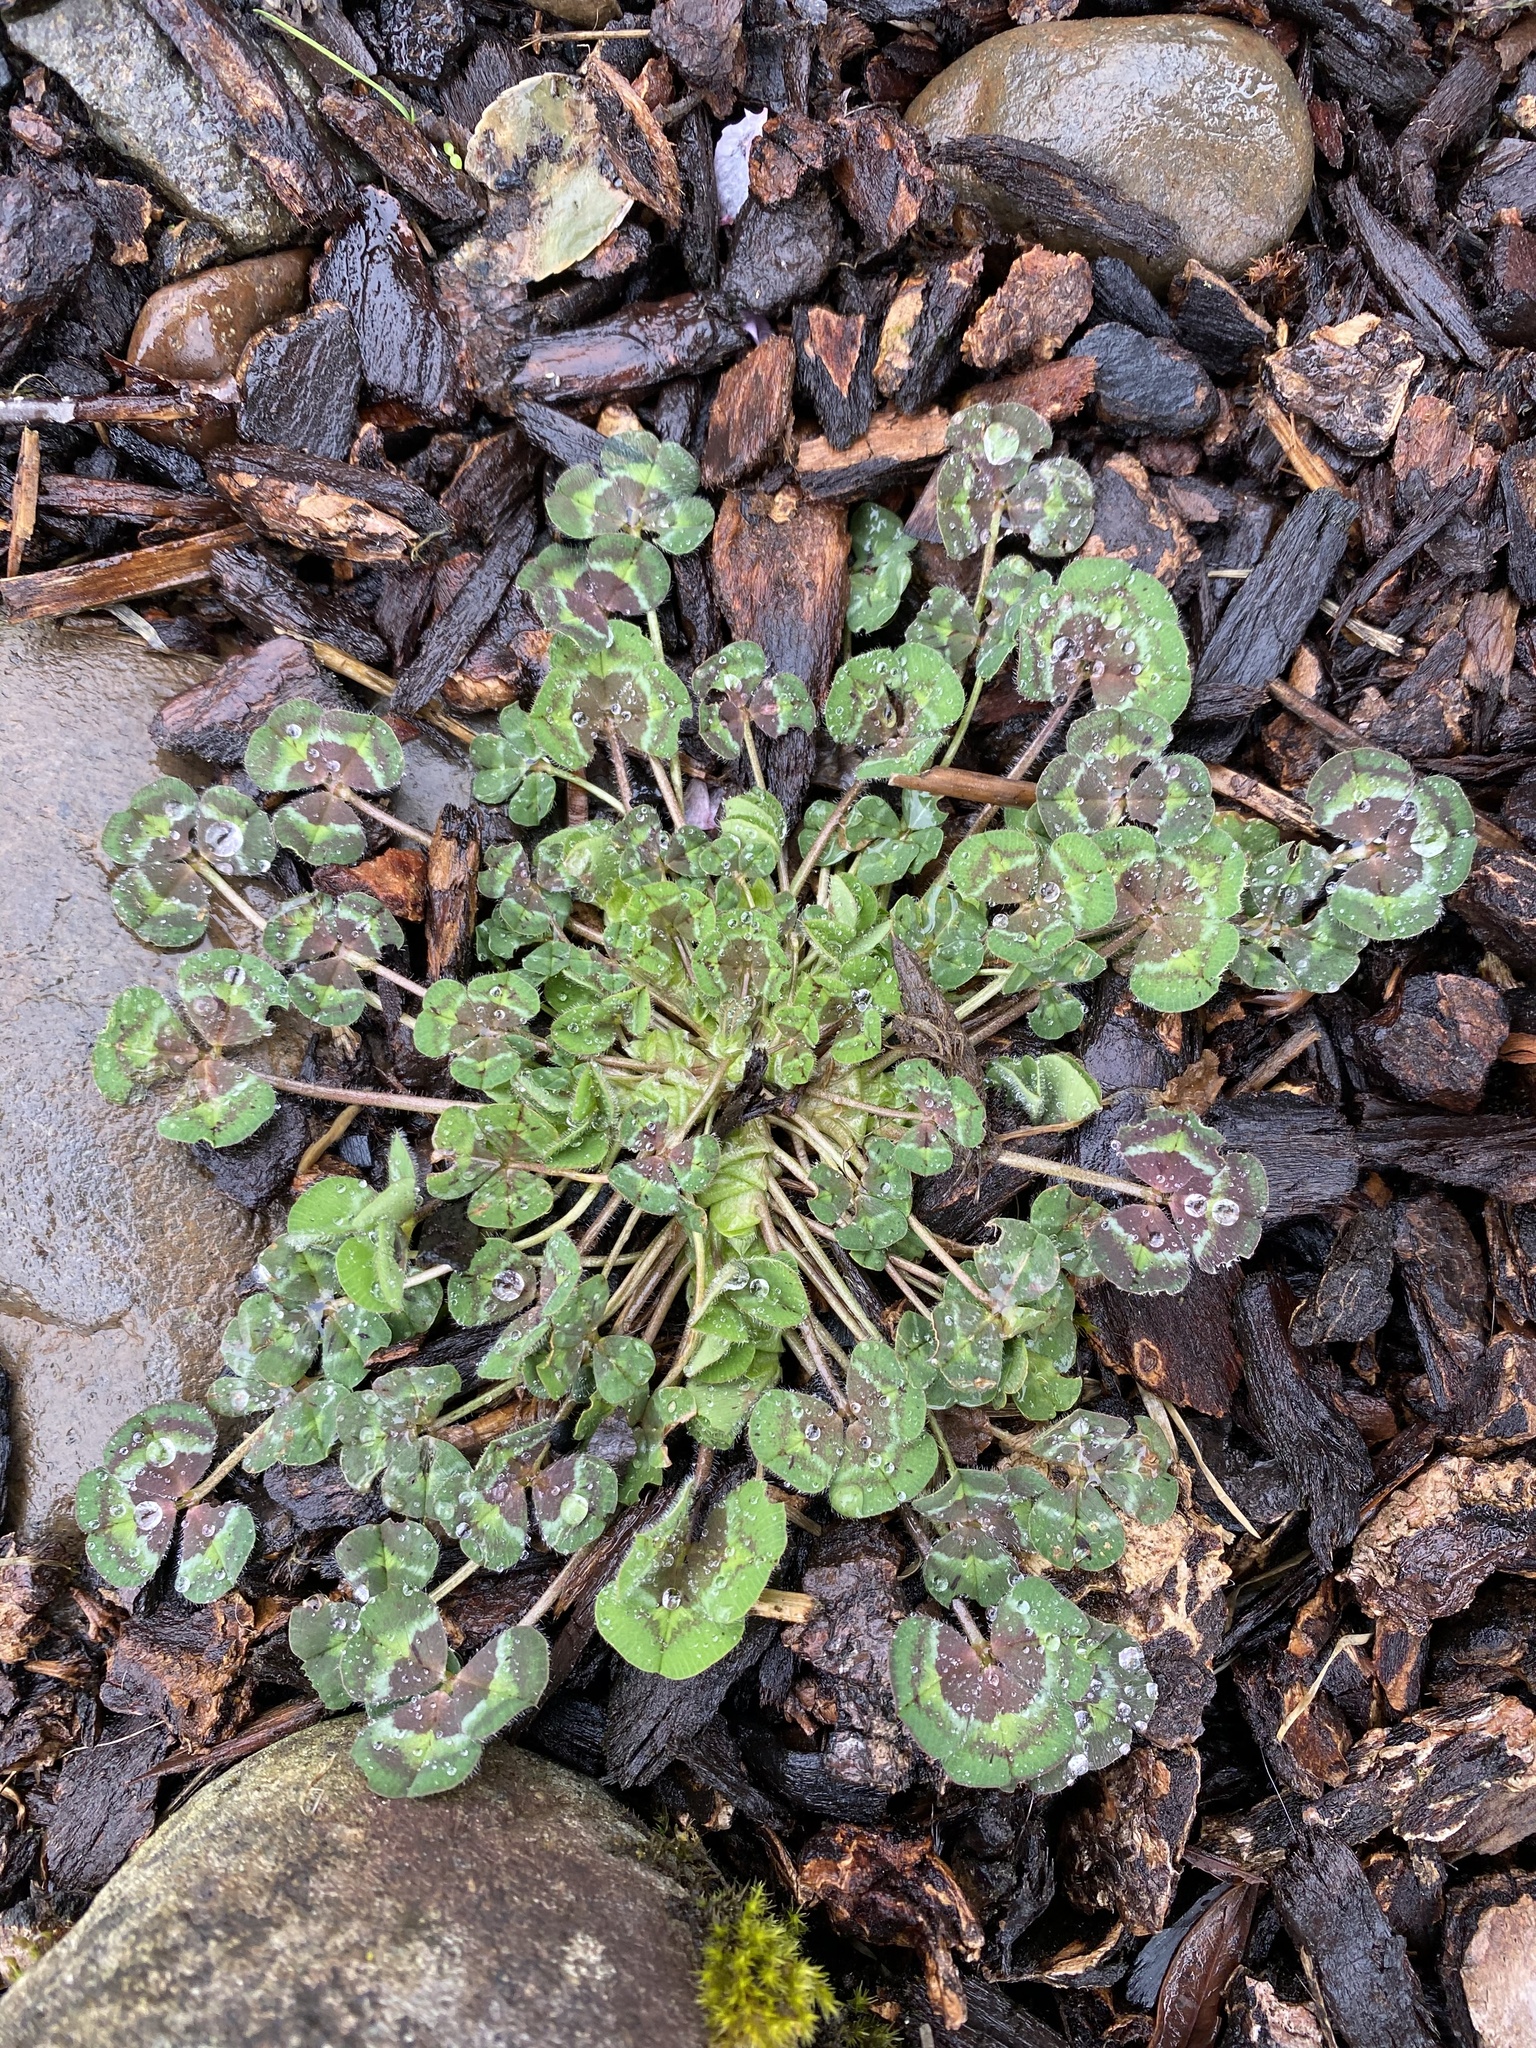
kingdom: Plantae
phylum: Tracheophyta
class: Magnoliopsida
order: Fabales
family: Fabaceae
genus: Trifolium
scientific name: Trifolium subterraneum
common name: Subterranean clover
